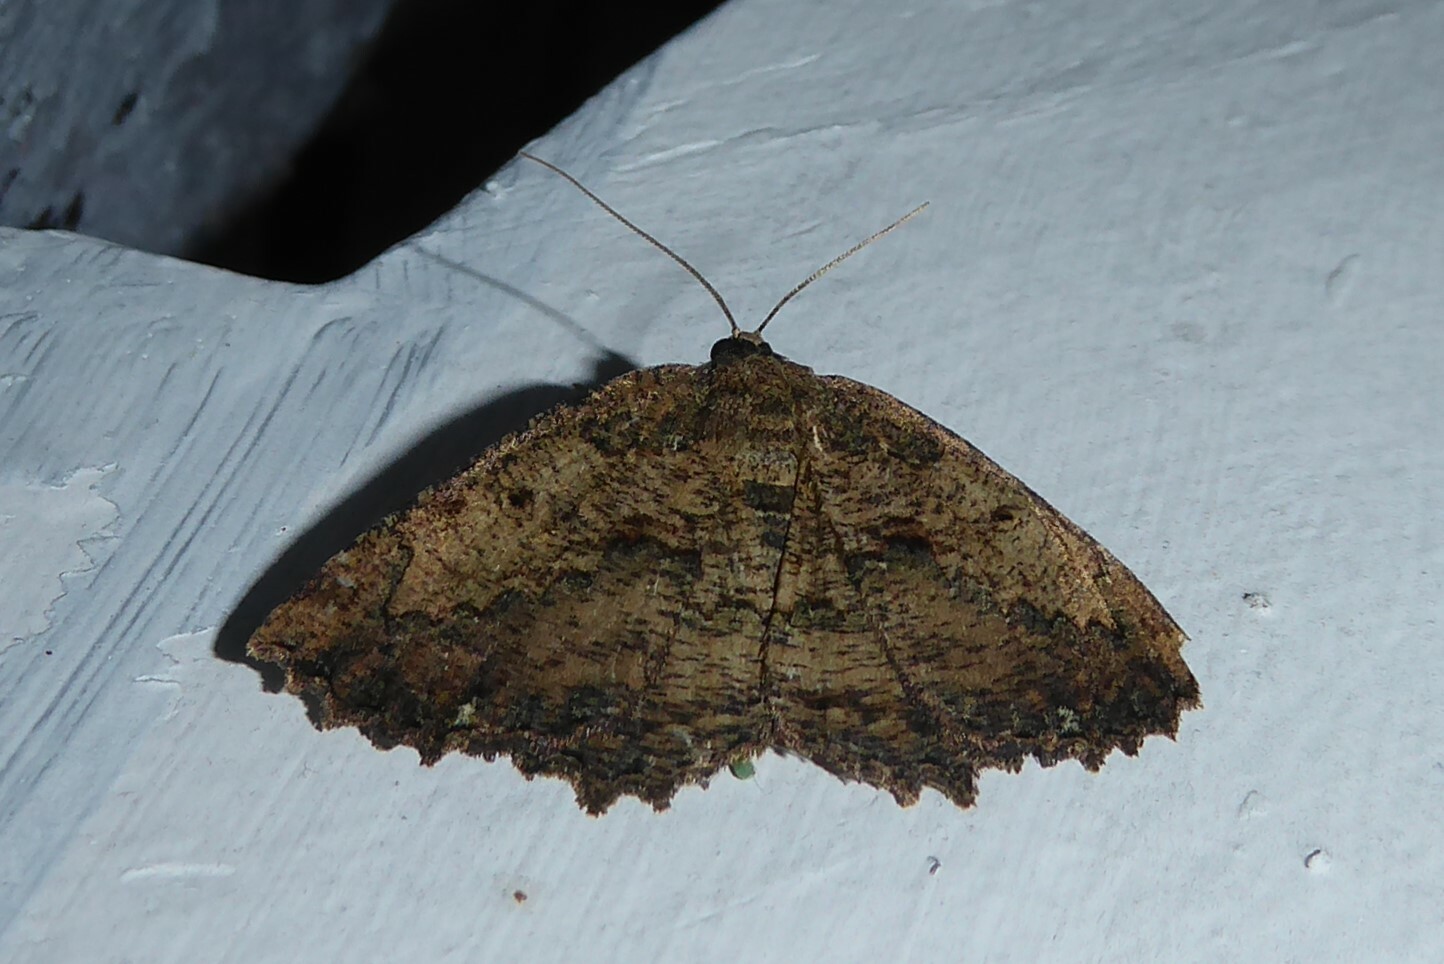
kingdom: Animalia
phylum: Arthropoda
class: Insecta
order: Lepidoptera
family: Geometridae
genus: Gellonia
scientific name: Gellonia pannularia
